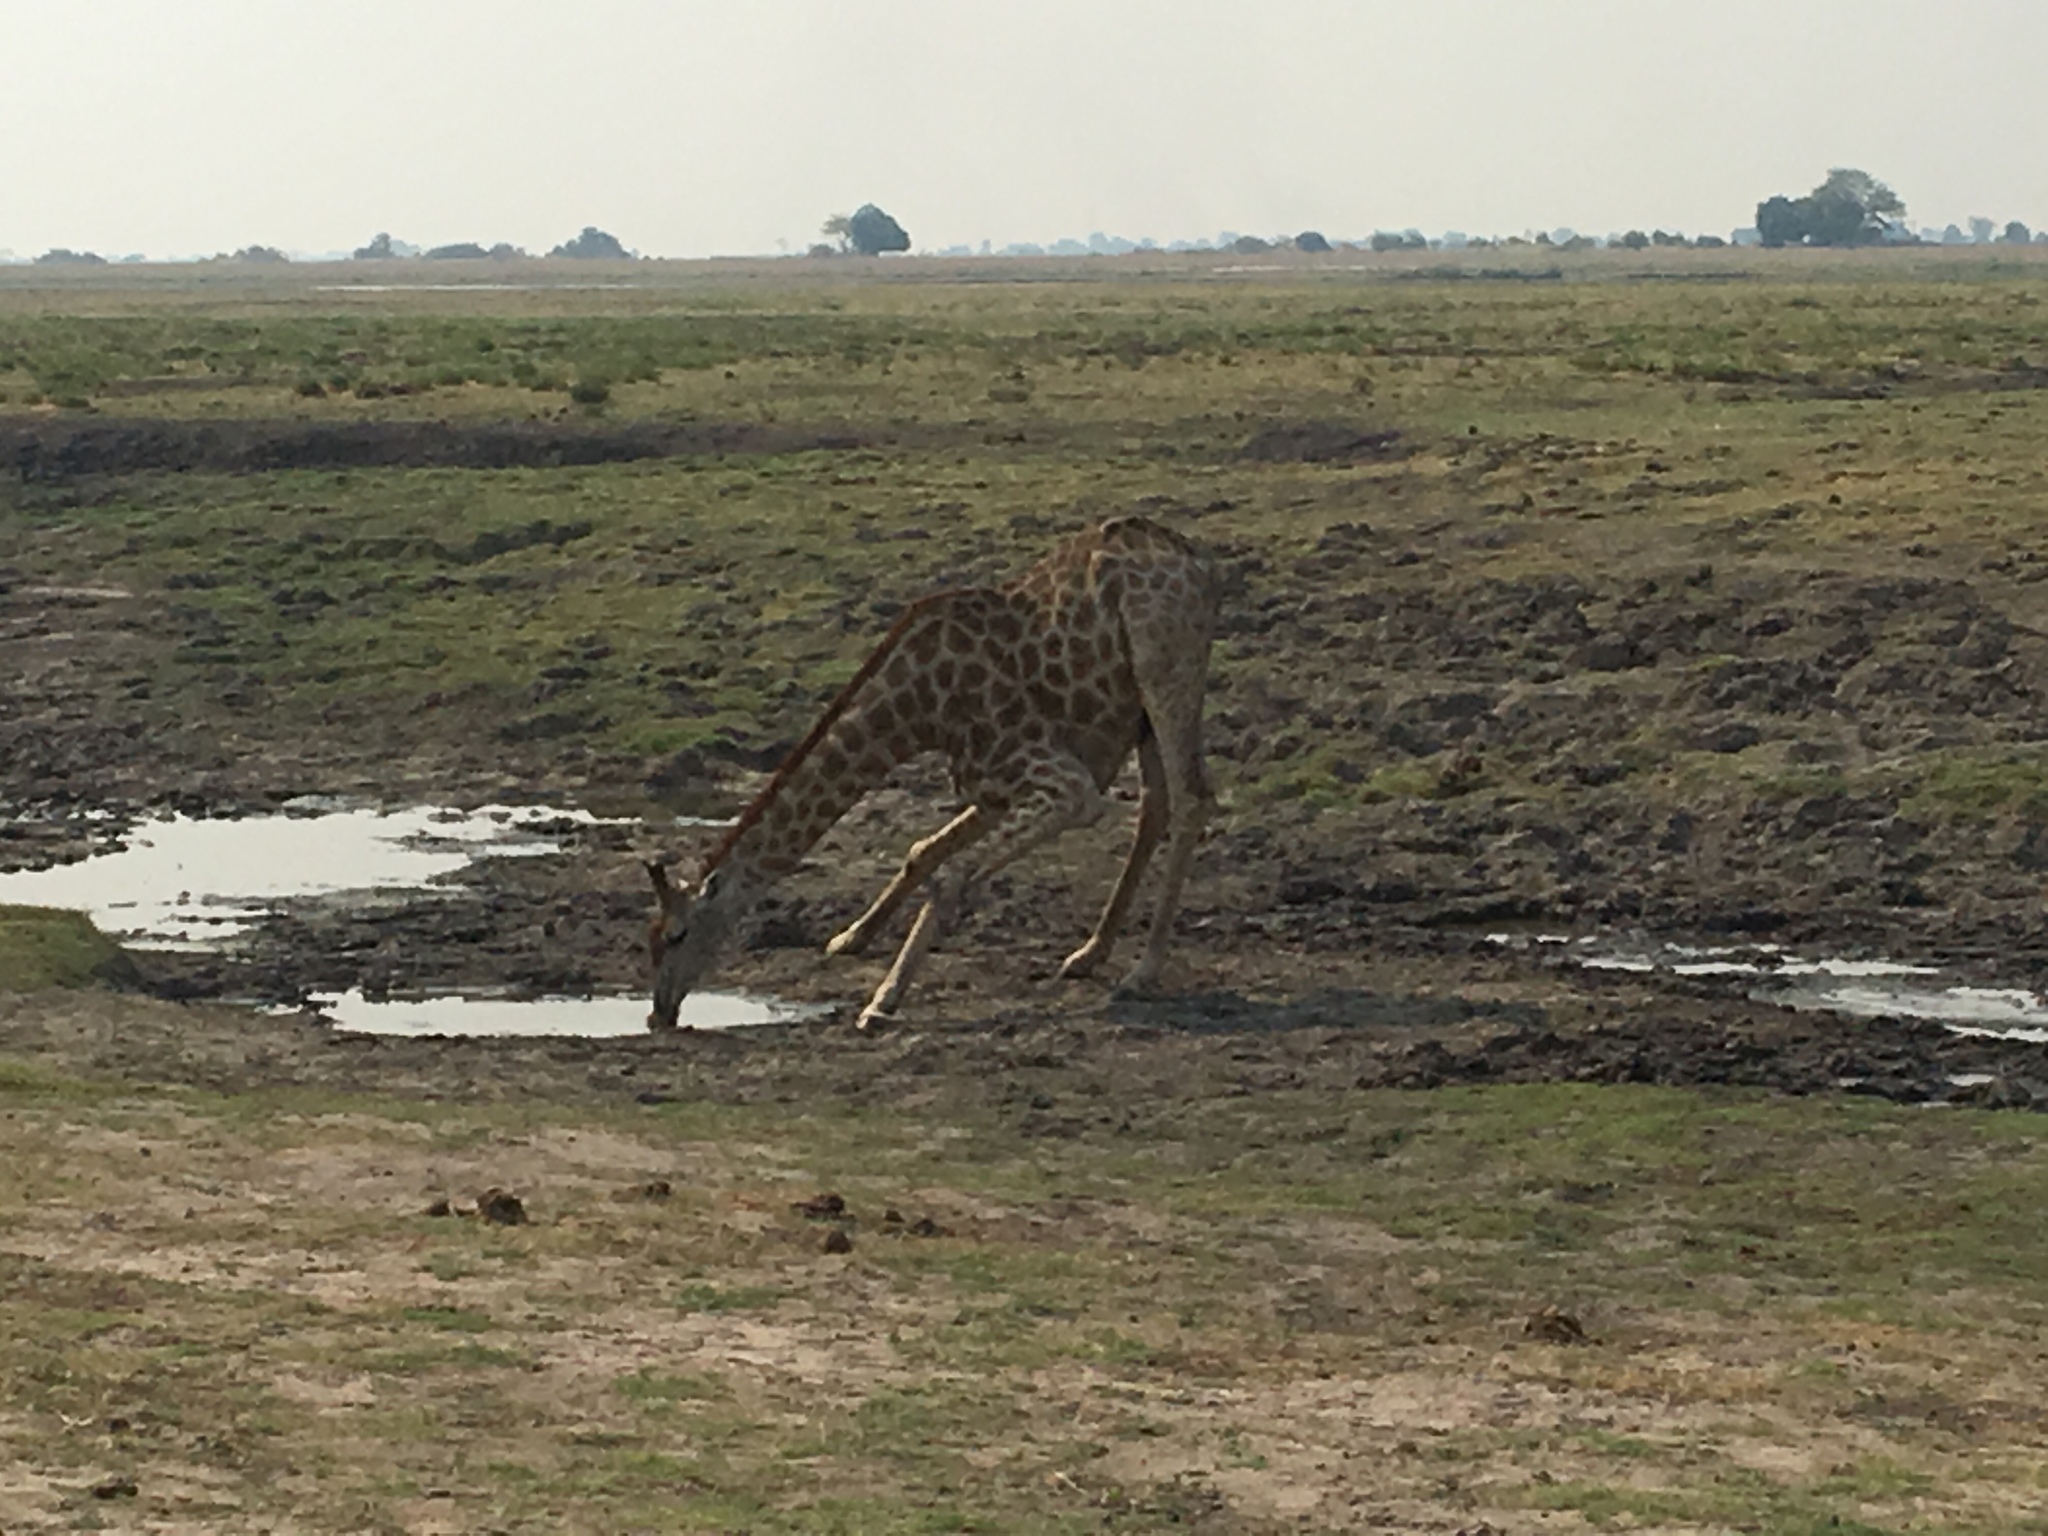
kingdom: Animalia
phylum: Chordata
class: Mammalia
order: Artiodactyla
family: Giraffidae
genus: Giraffa
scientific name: Giraffa giraffa
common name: Southern giraffe
